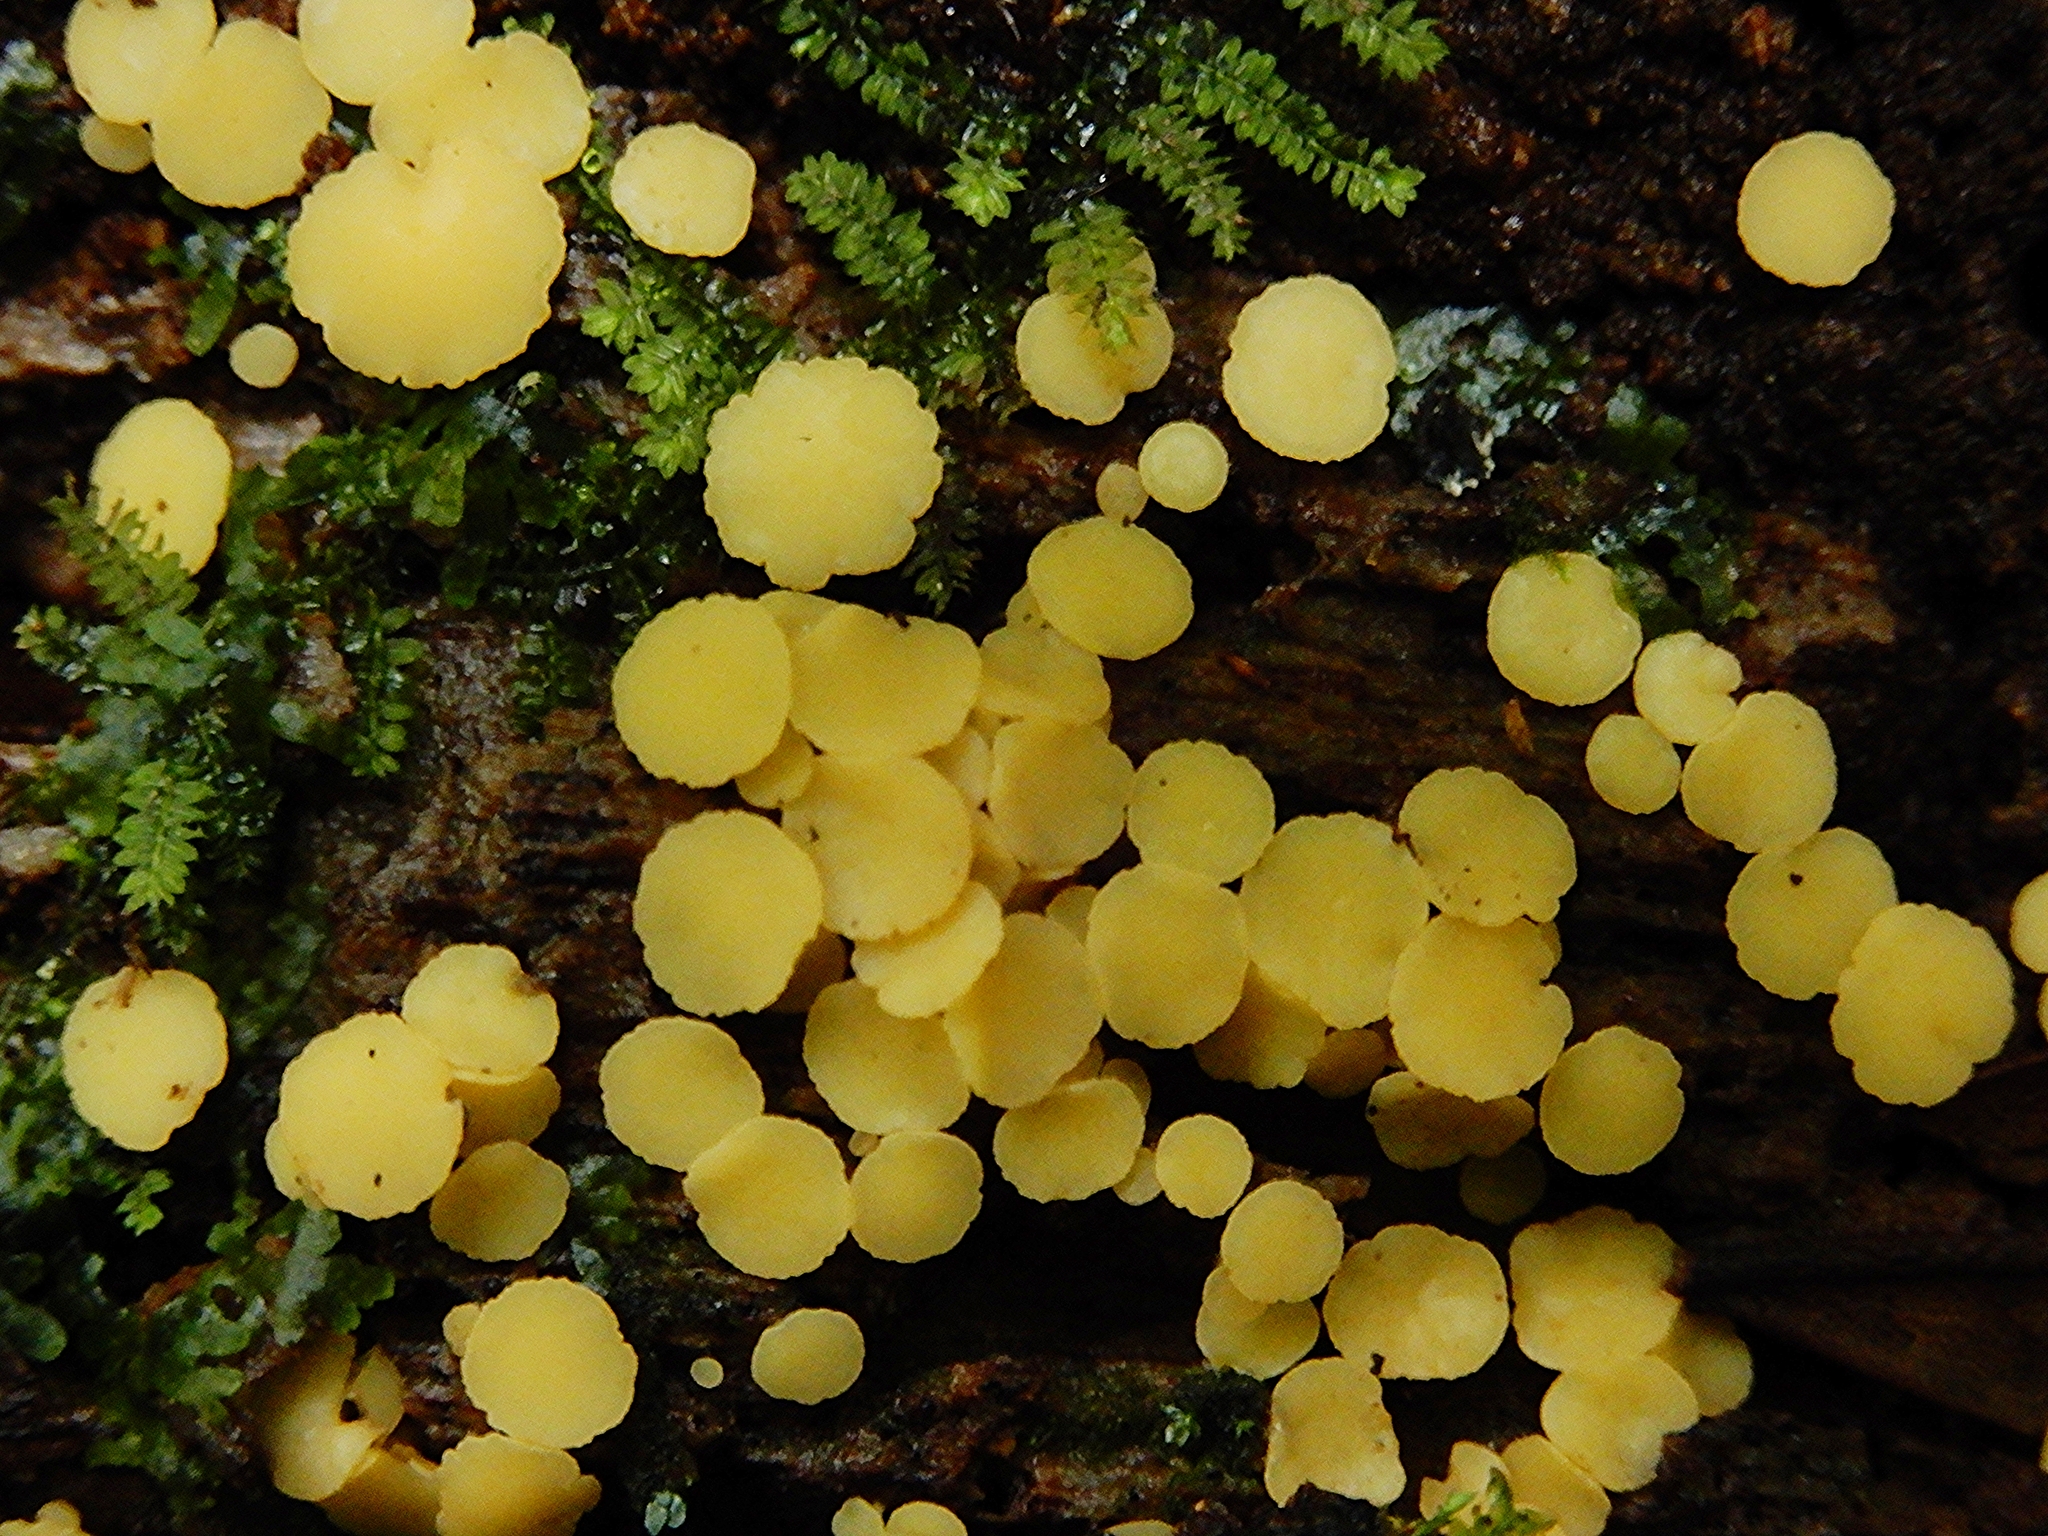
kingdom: Fungi
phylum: Ascomycota
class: Leotiomycetes
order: Helotiales
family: Pezizellaceae
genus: Calycina
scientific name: Calycina citrina
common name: Yellow fairy cups
